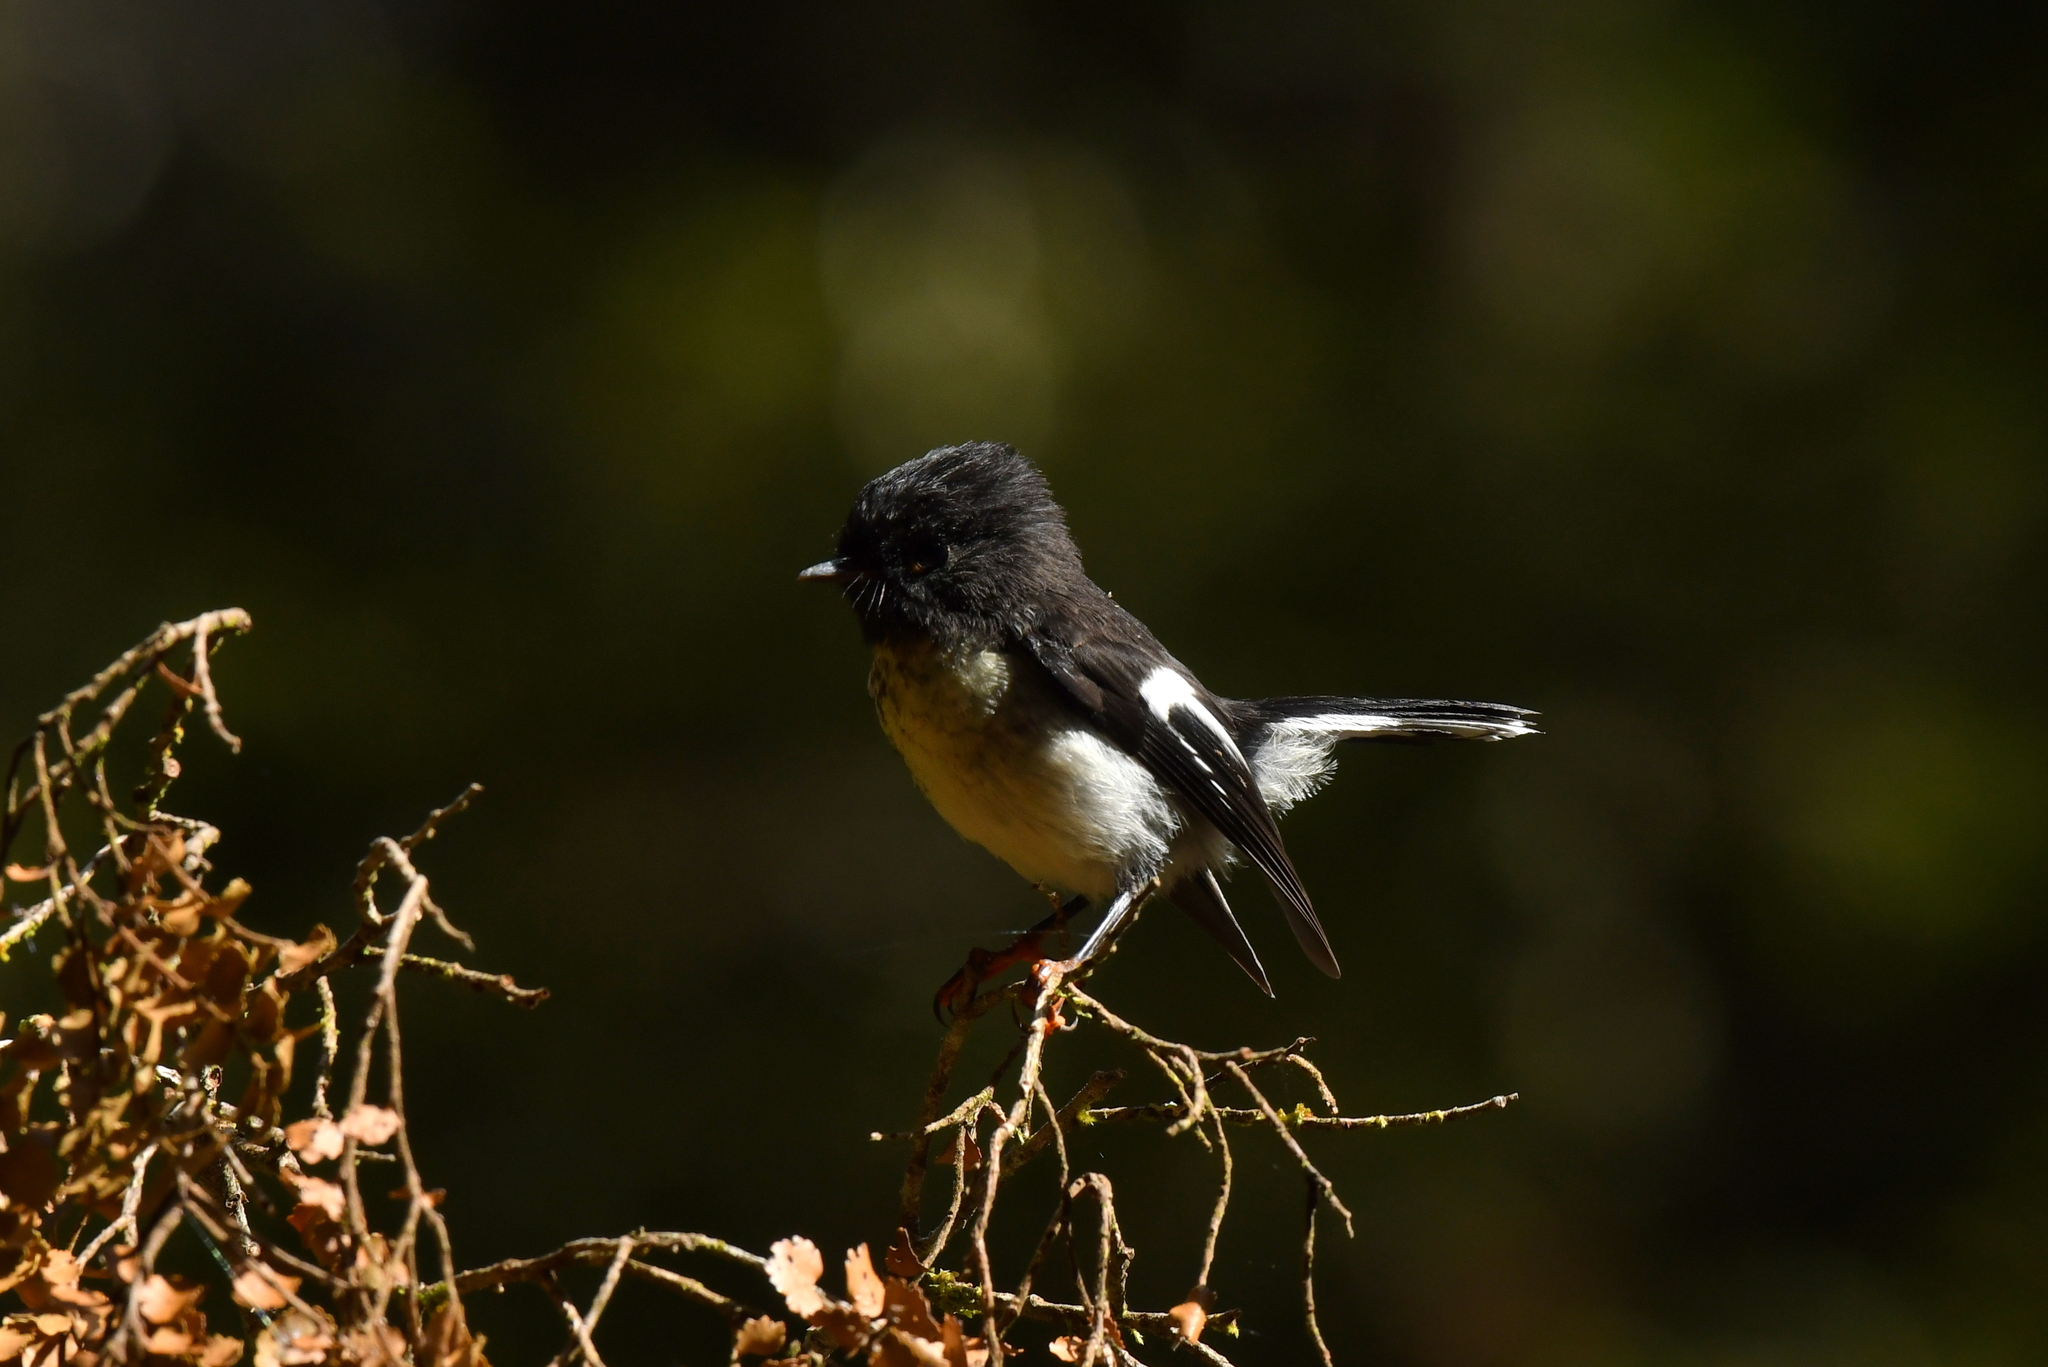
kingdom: Animalia
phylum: Chordata
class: Aves
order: Passeriformes
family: Petroicidae
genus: Petroica
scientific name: Petroica macrocephala
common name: Tomtit
